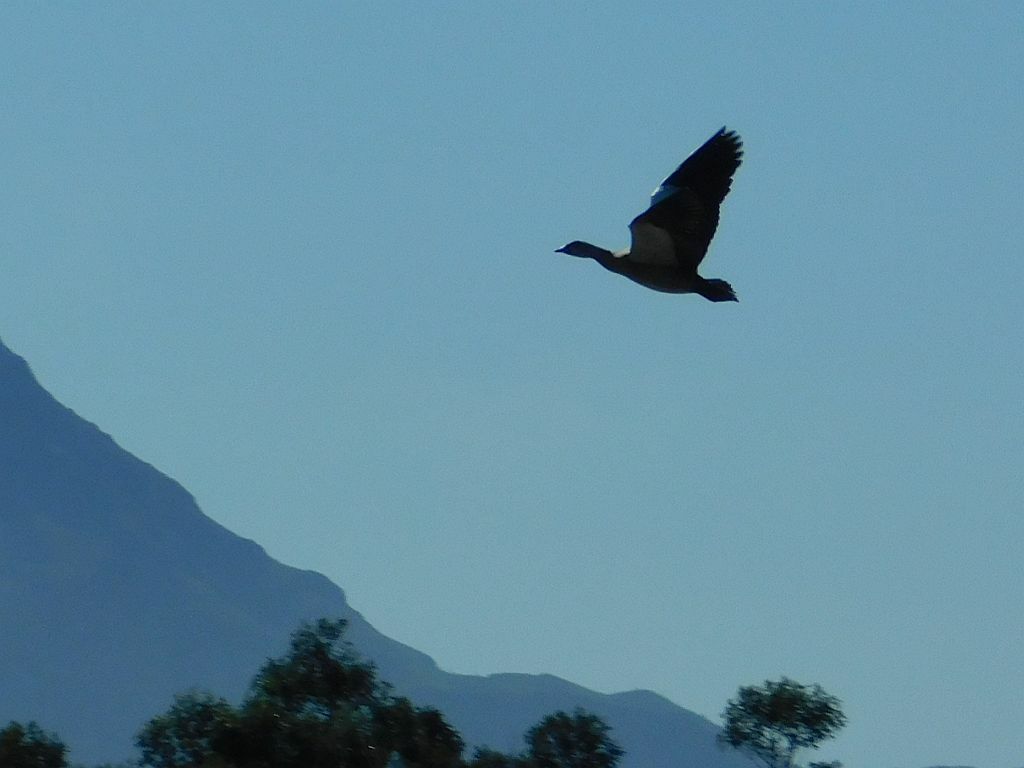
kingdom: Animalia
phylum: Chordata
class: Aves
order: Anseriformes
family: Anatidae
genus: Alopochen
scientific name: Alopochen aegyptiaca
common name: Egyptian goose
